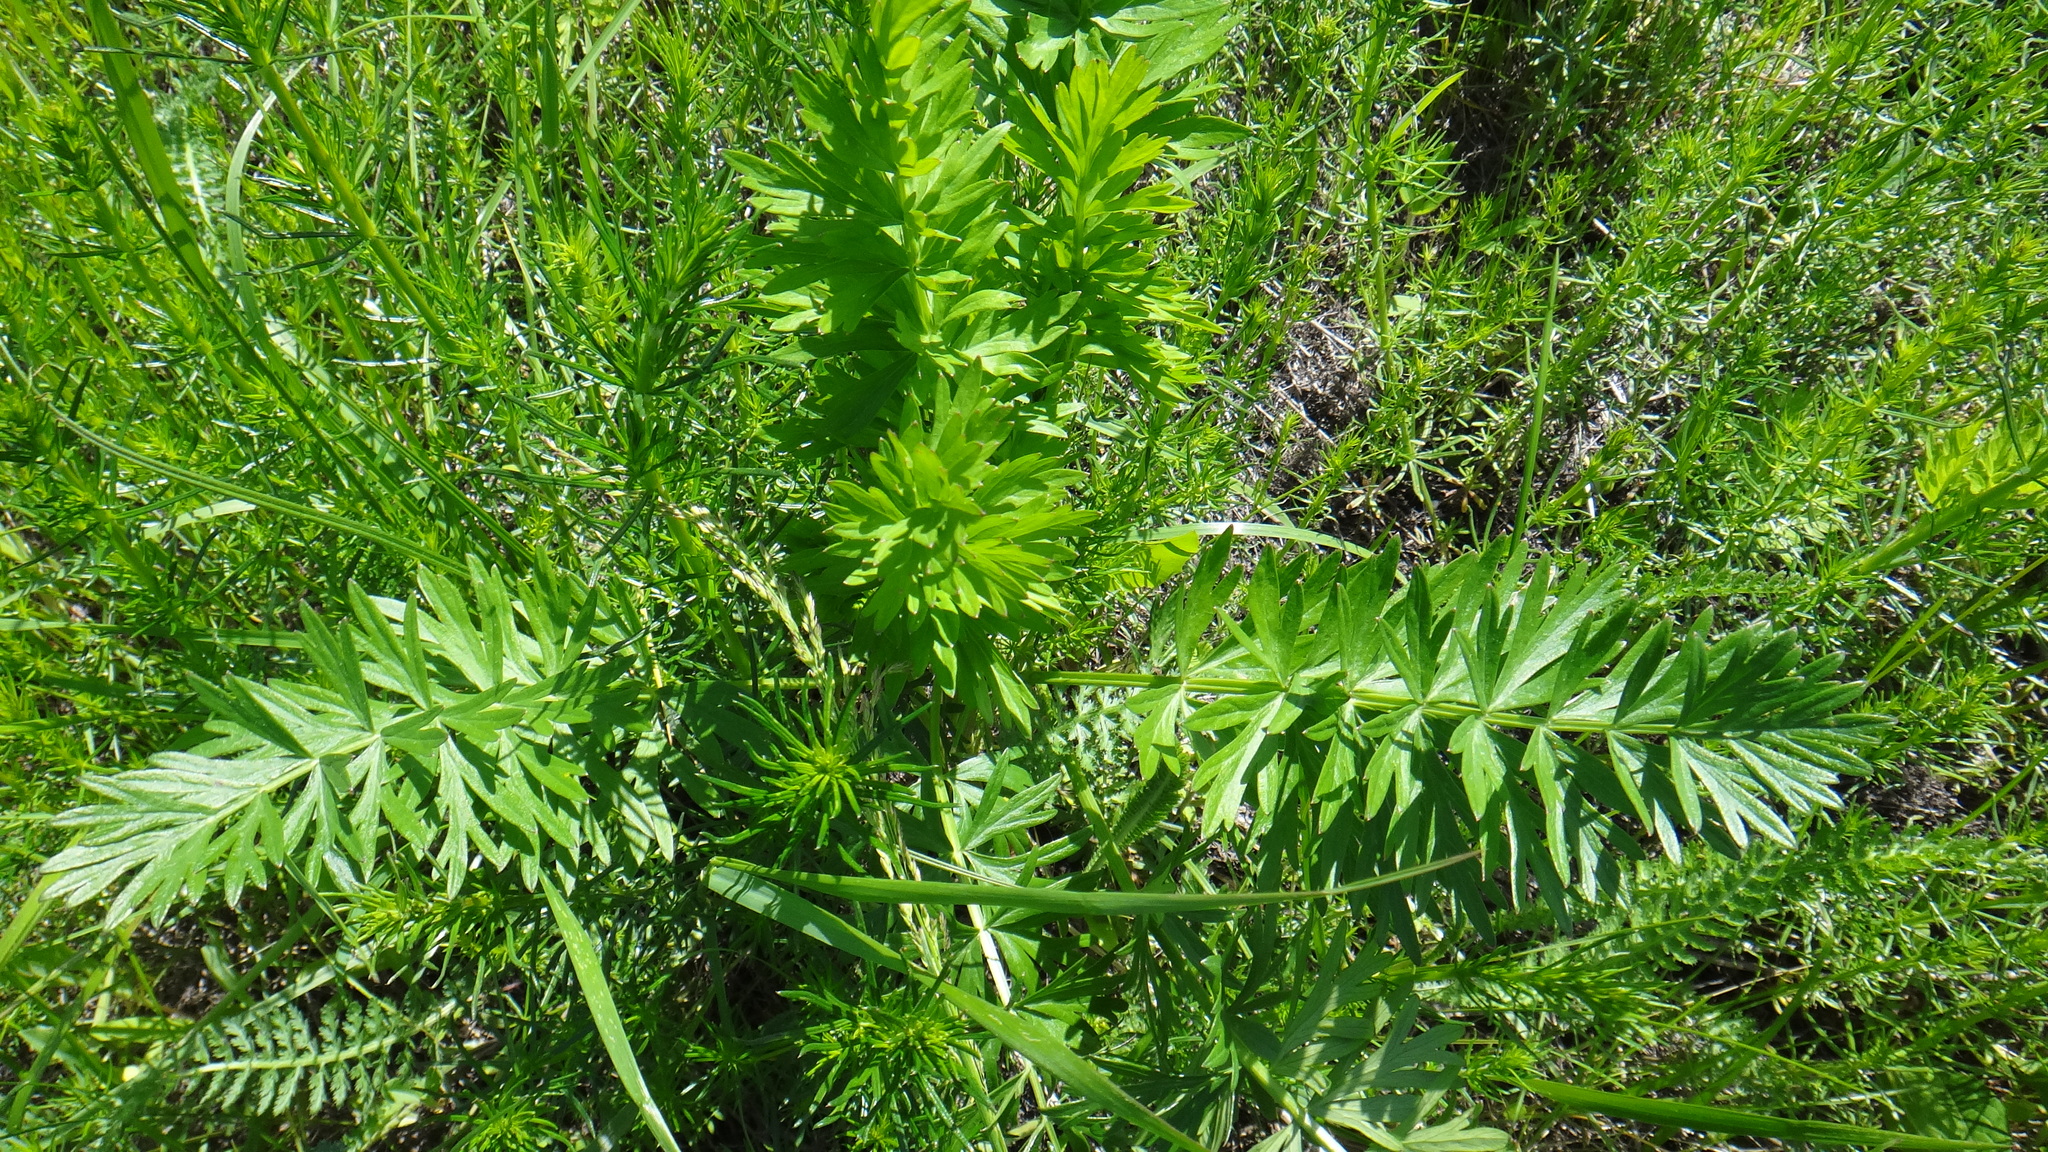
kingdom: Plantae
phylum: Tracheophyta
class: Magnoliopsida
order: Apiales
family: Apiaceae
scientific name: Apiaceae
